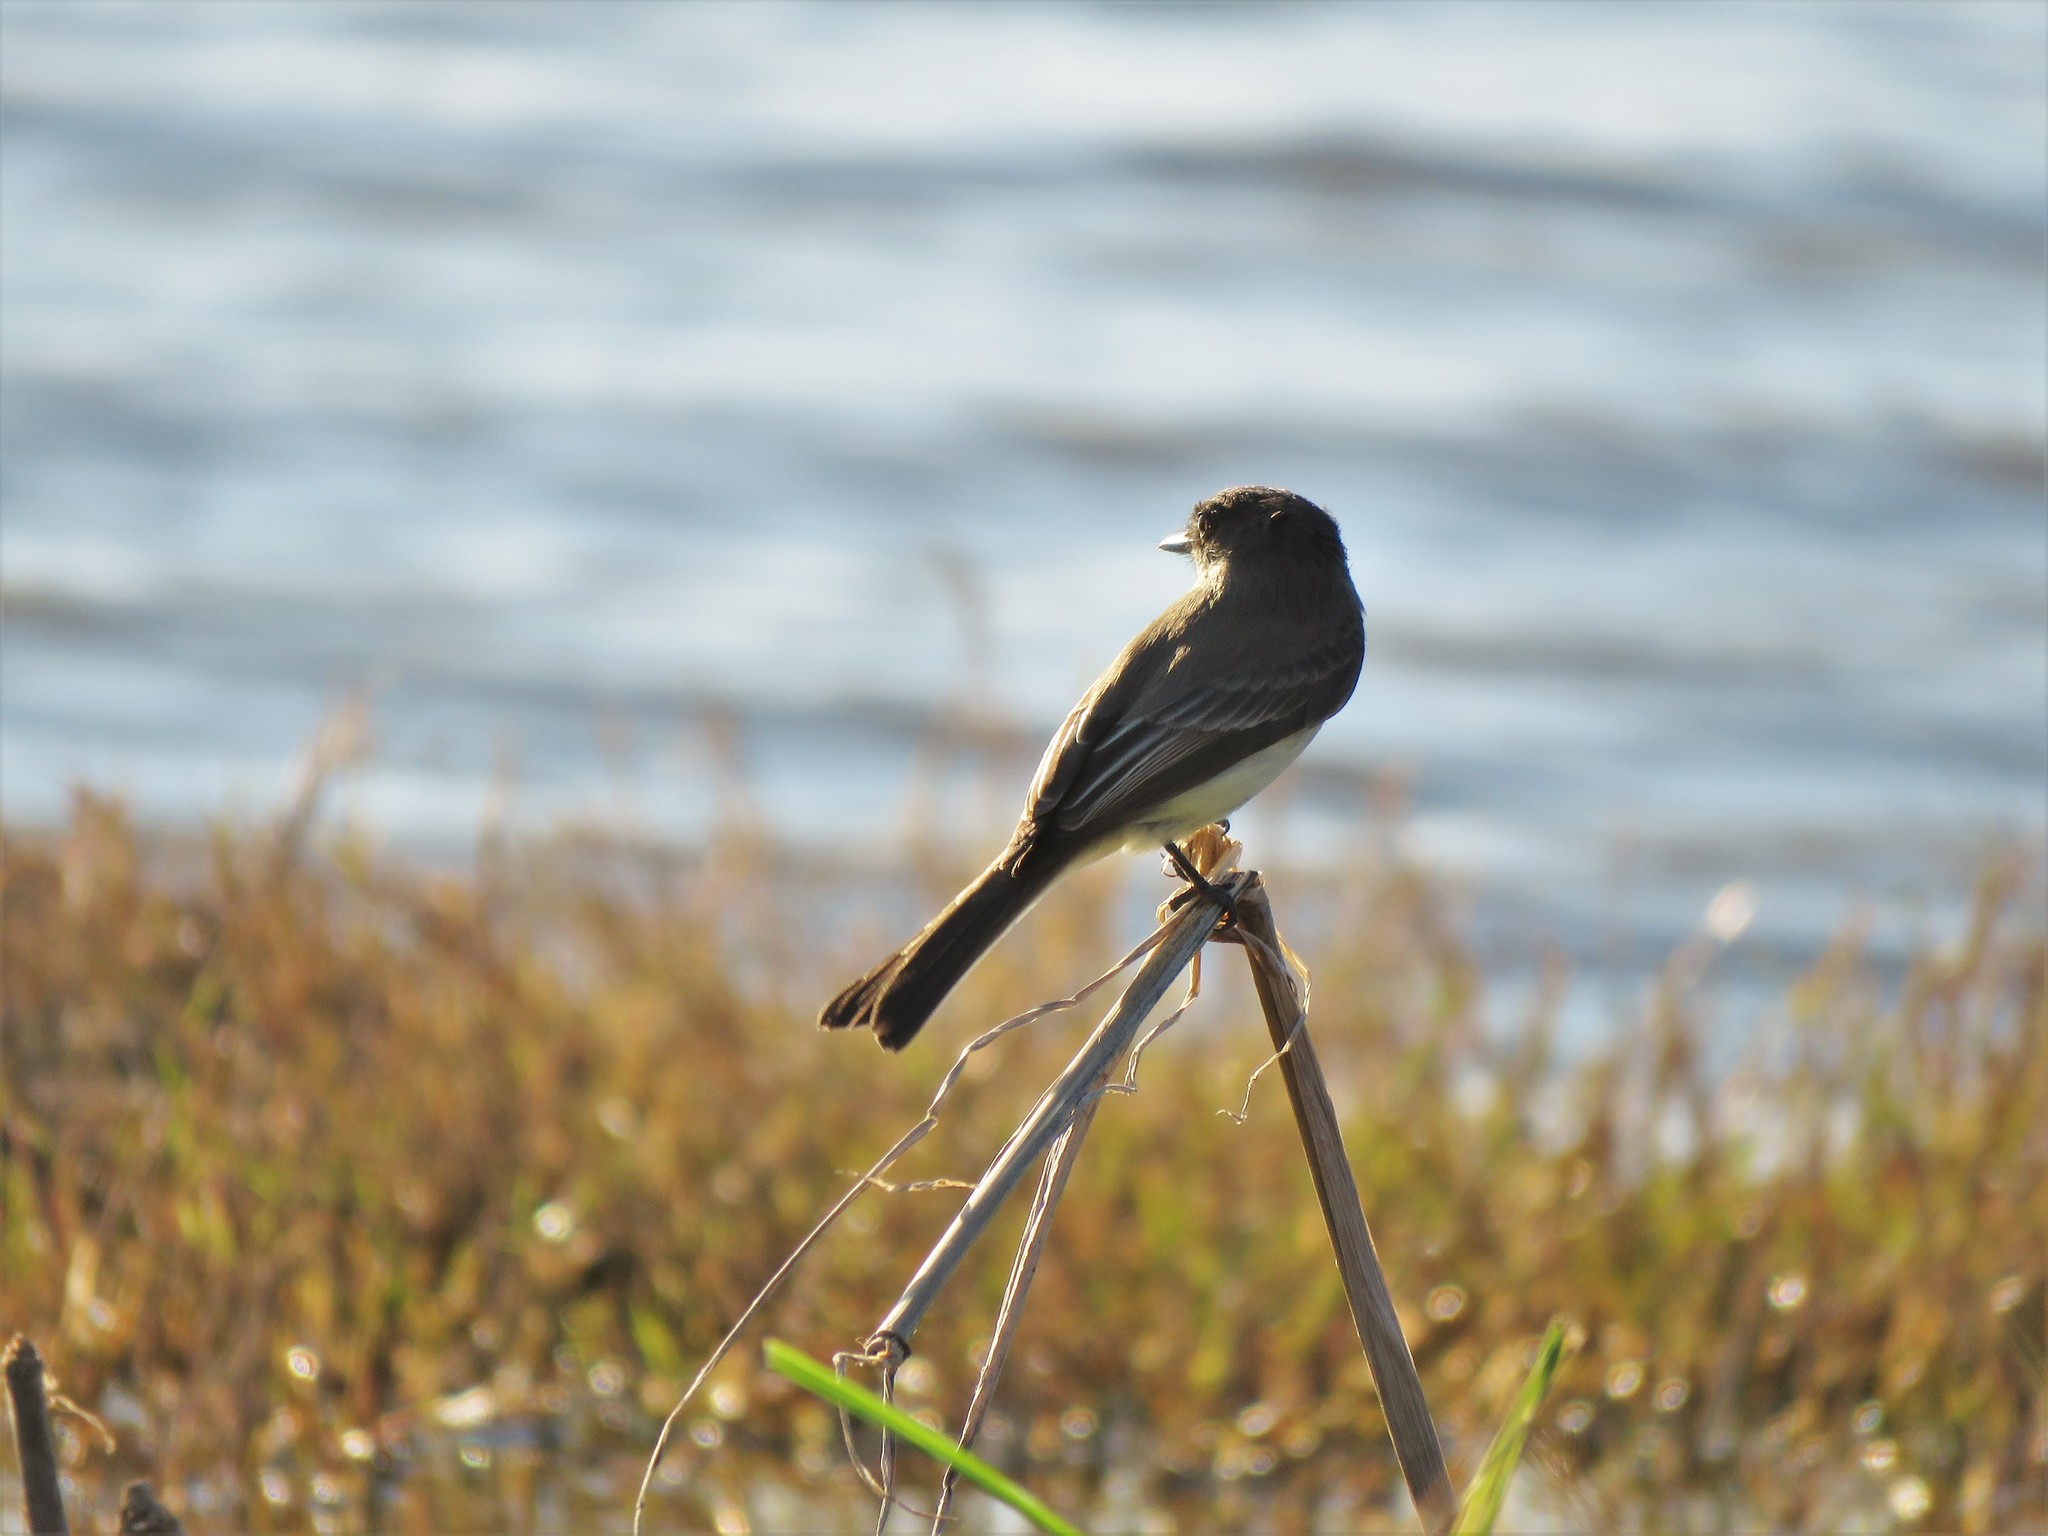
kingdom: Animalia
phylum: Chordata
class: Aves
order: Passeriformes
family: Tyrannidae
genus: Sayornis
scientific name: Sayornis phoebe
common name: Eastern phoebe
